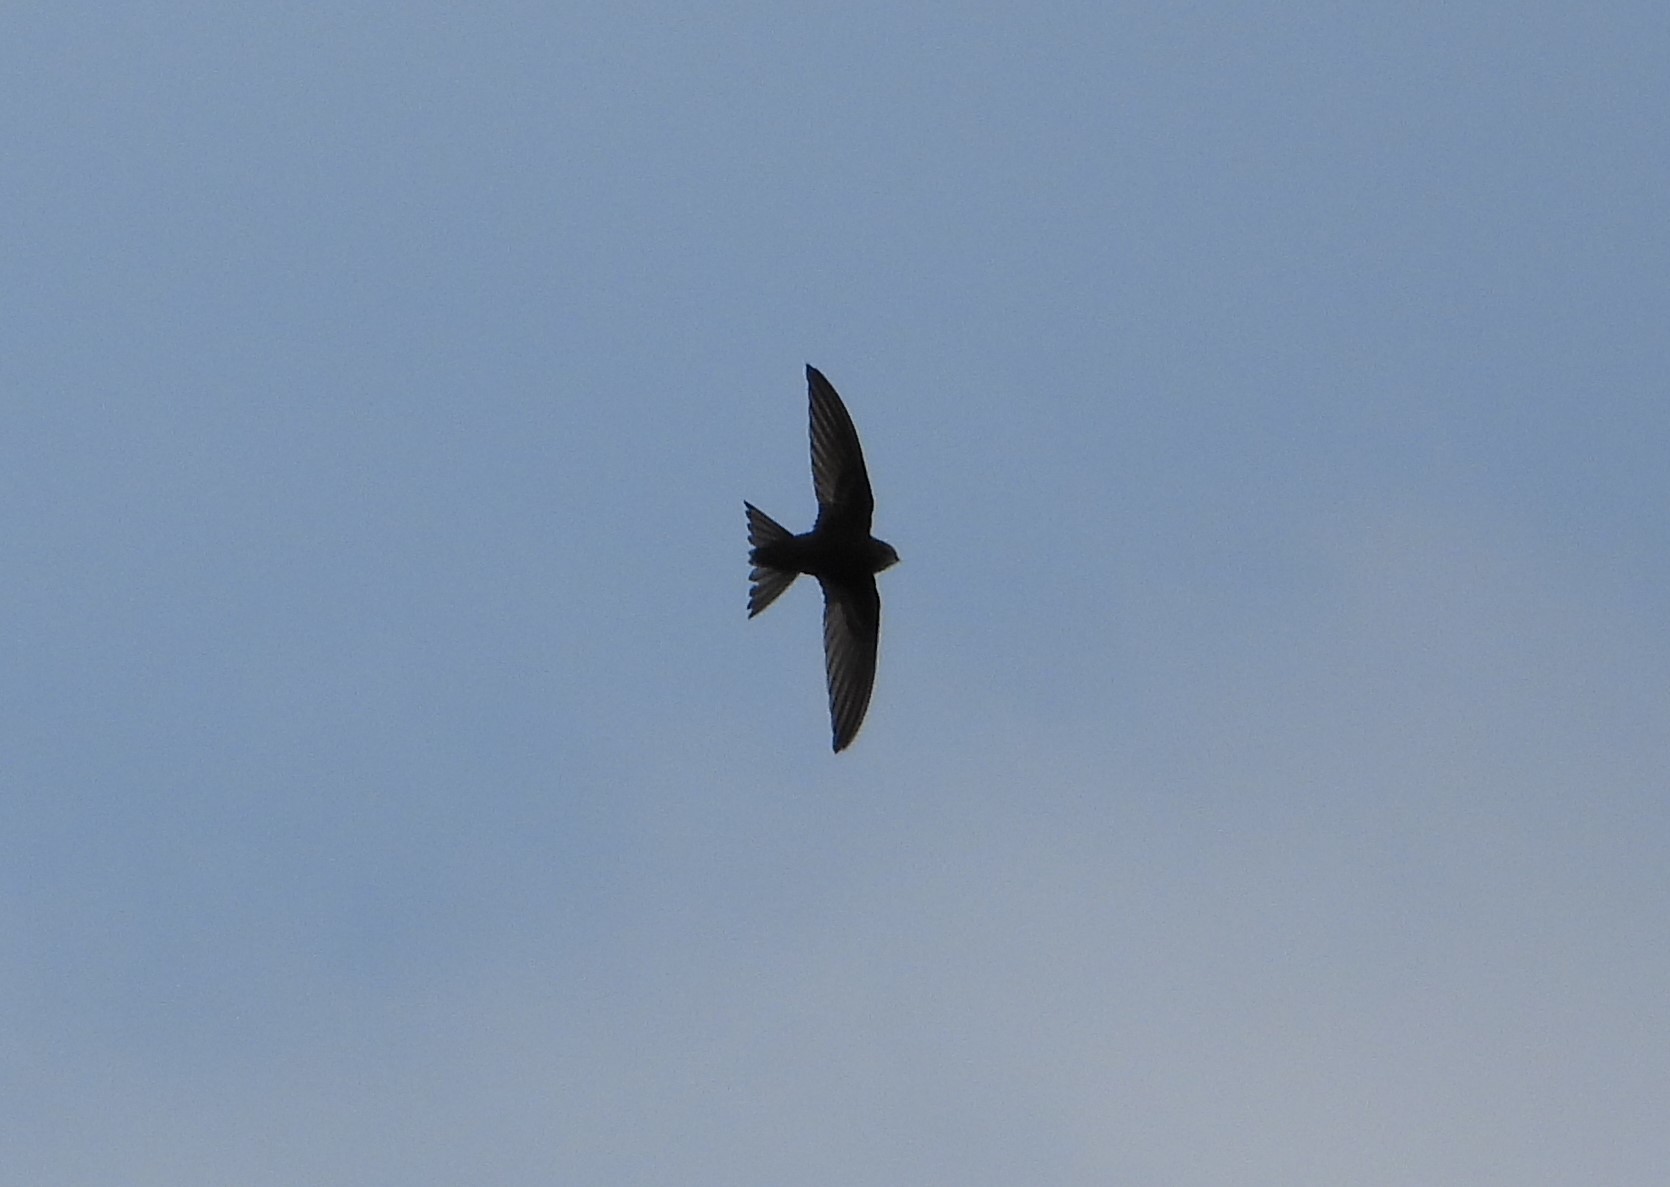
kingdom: Animalia
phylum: Chordata
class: Aves
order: Apodiformes
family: Apodidae
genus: Apus
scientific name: Apus apus
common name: Common swift
